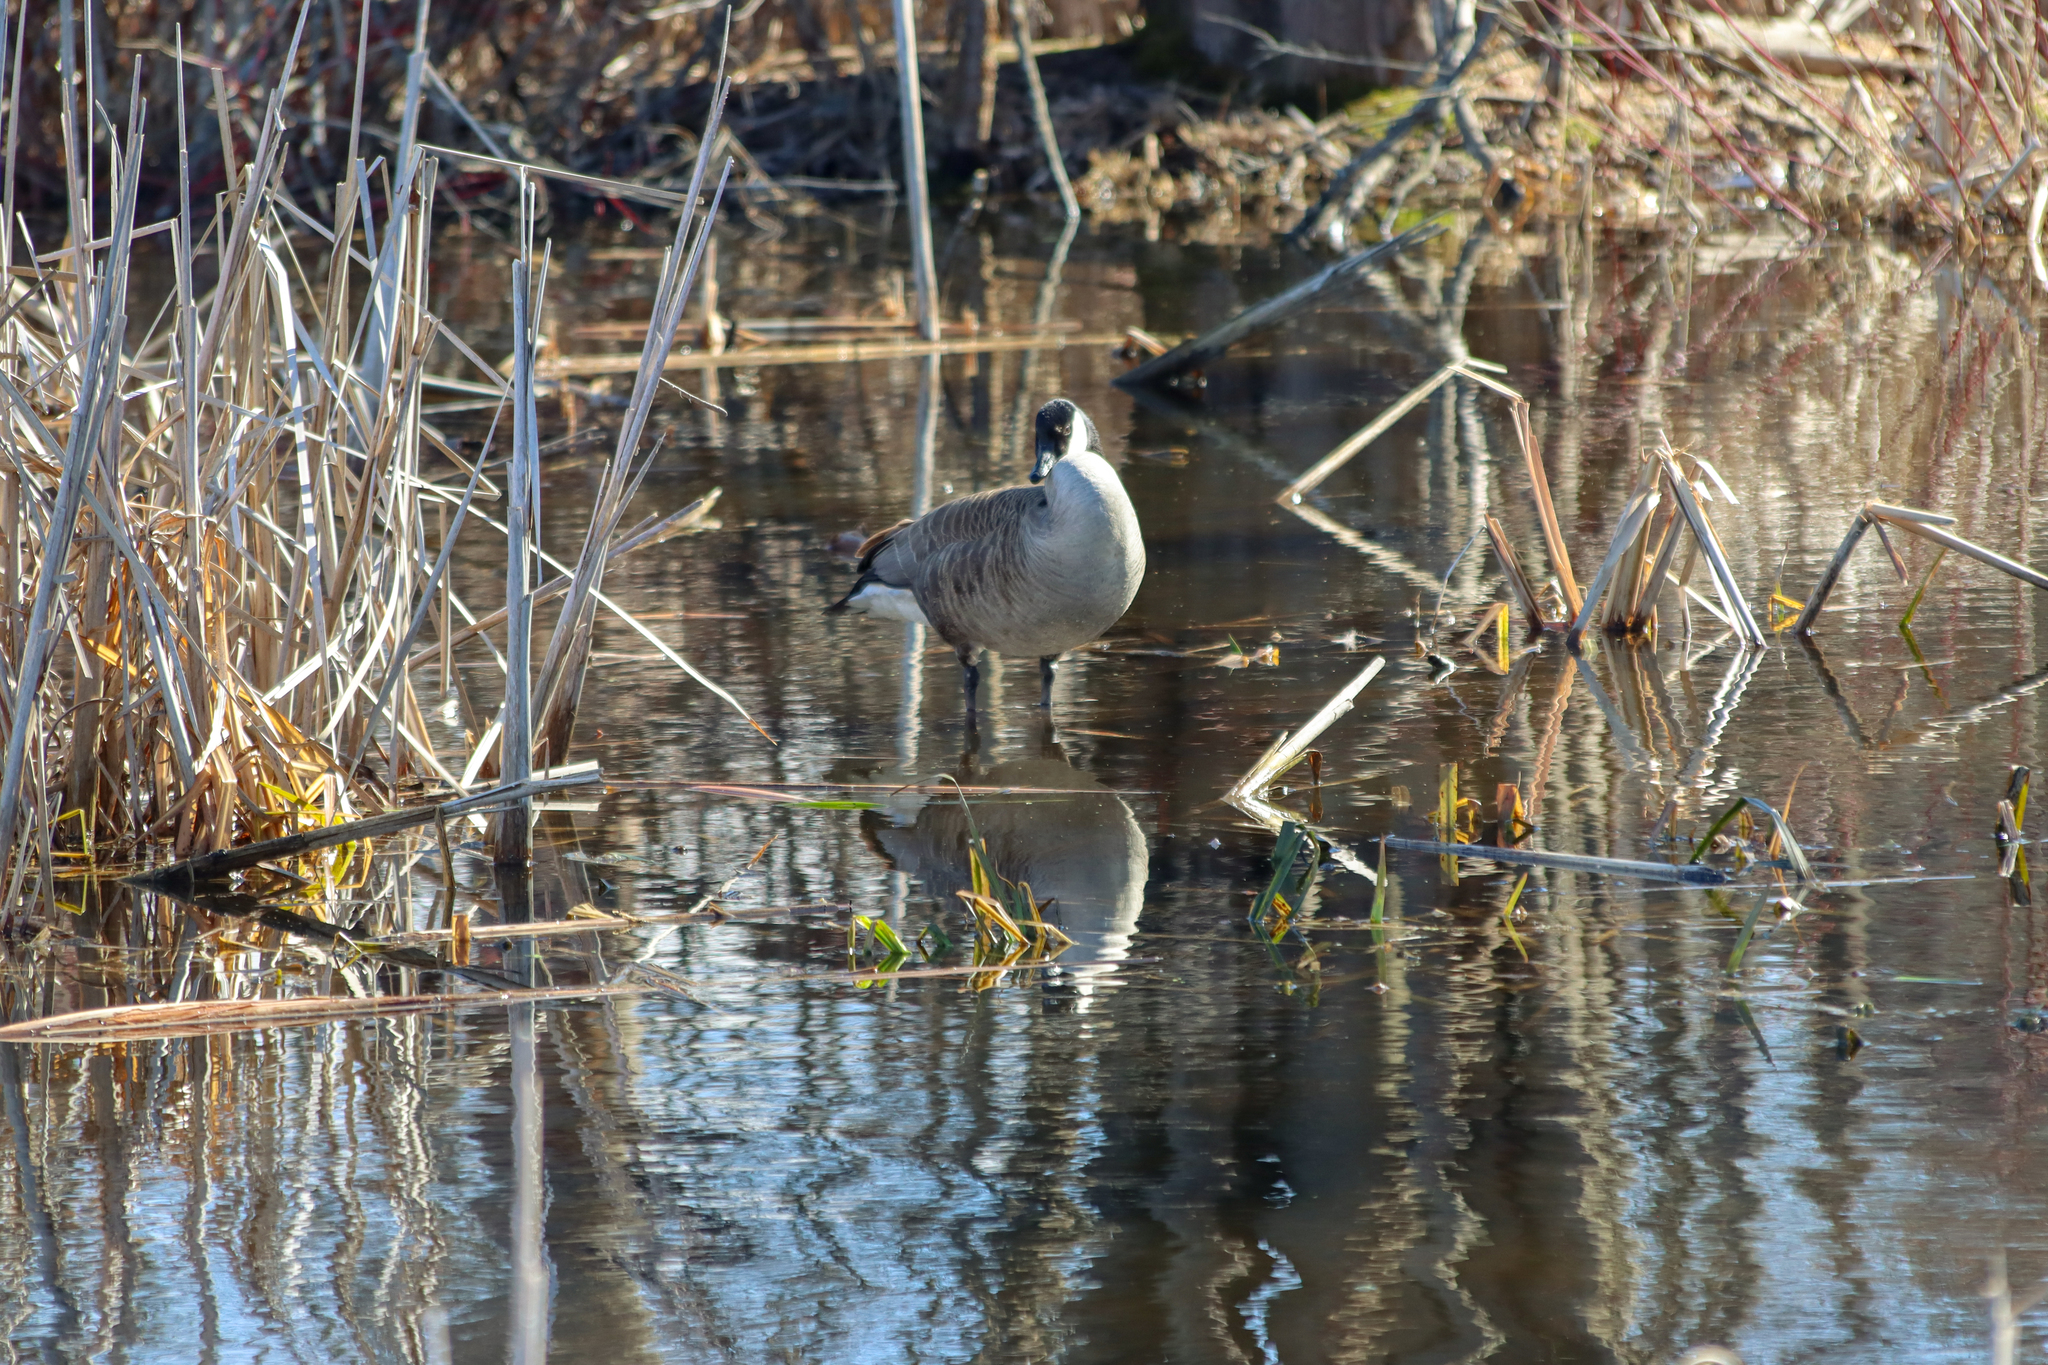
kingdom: Animalia
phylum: Chordata
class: Aves
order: Anseriformes
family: Anatidae
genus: Branta
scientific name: Branta canadensis
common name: Canada goose
